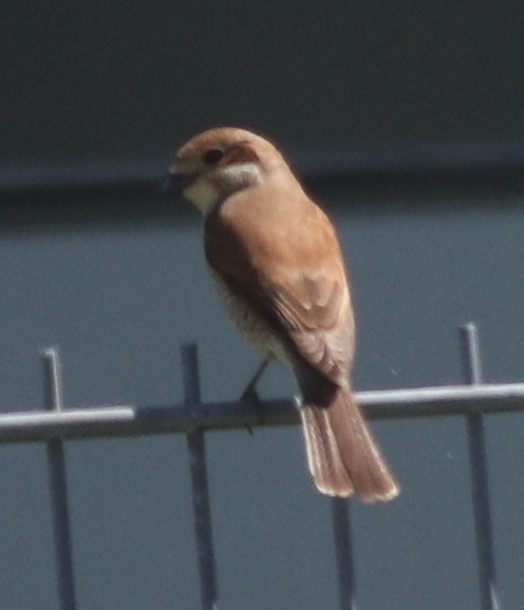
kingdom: Animalia
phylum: Chordata
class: Aves
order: Passeriformes
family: Laniidae
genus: Lanius
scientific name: Lanius collurio
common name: Red-backed shrike
